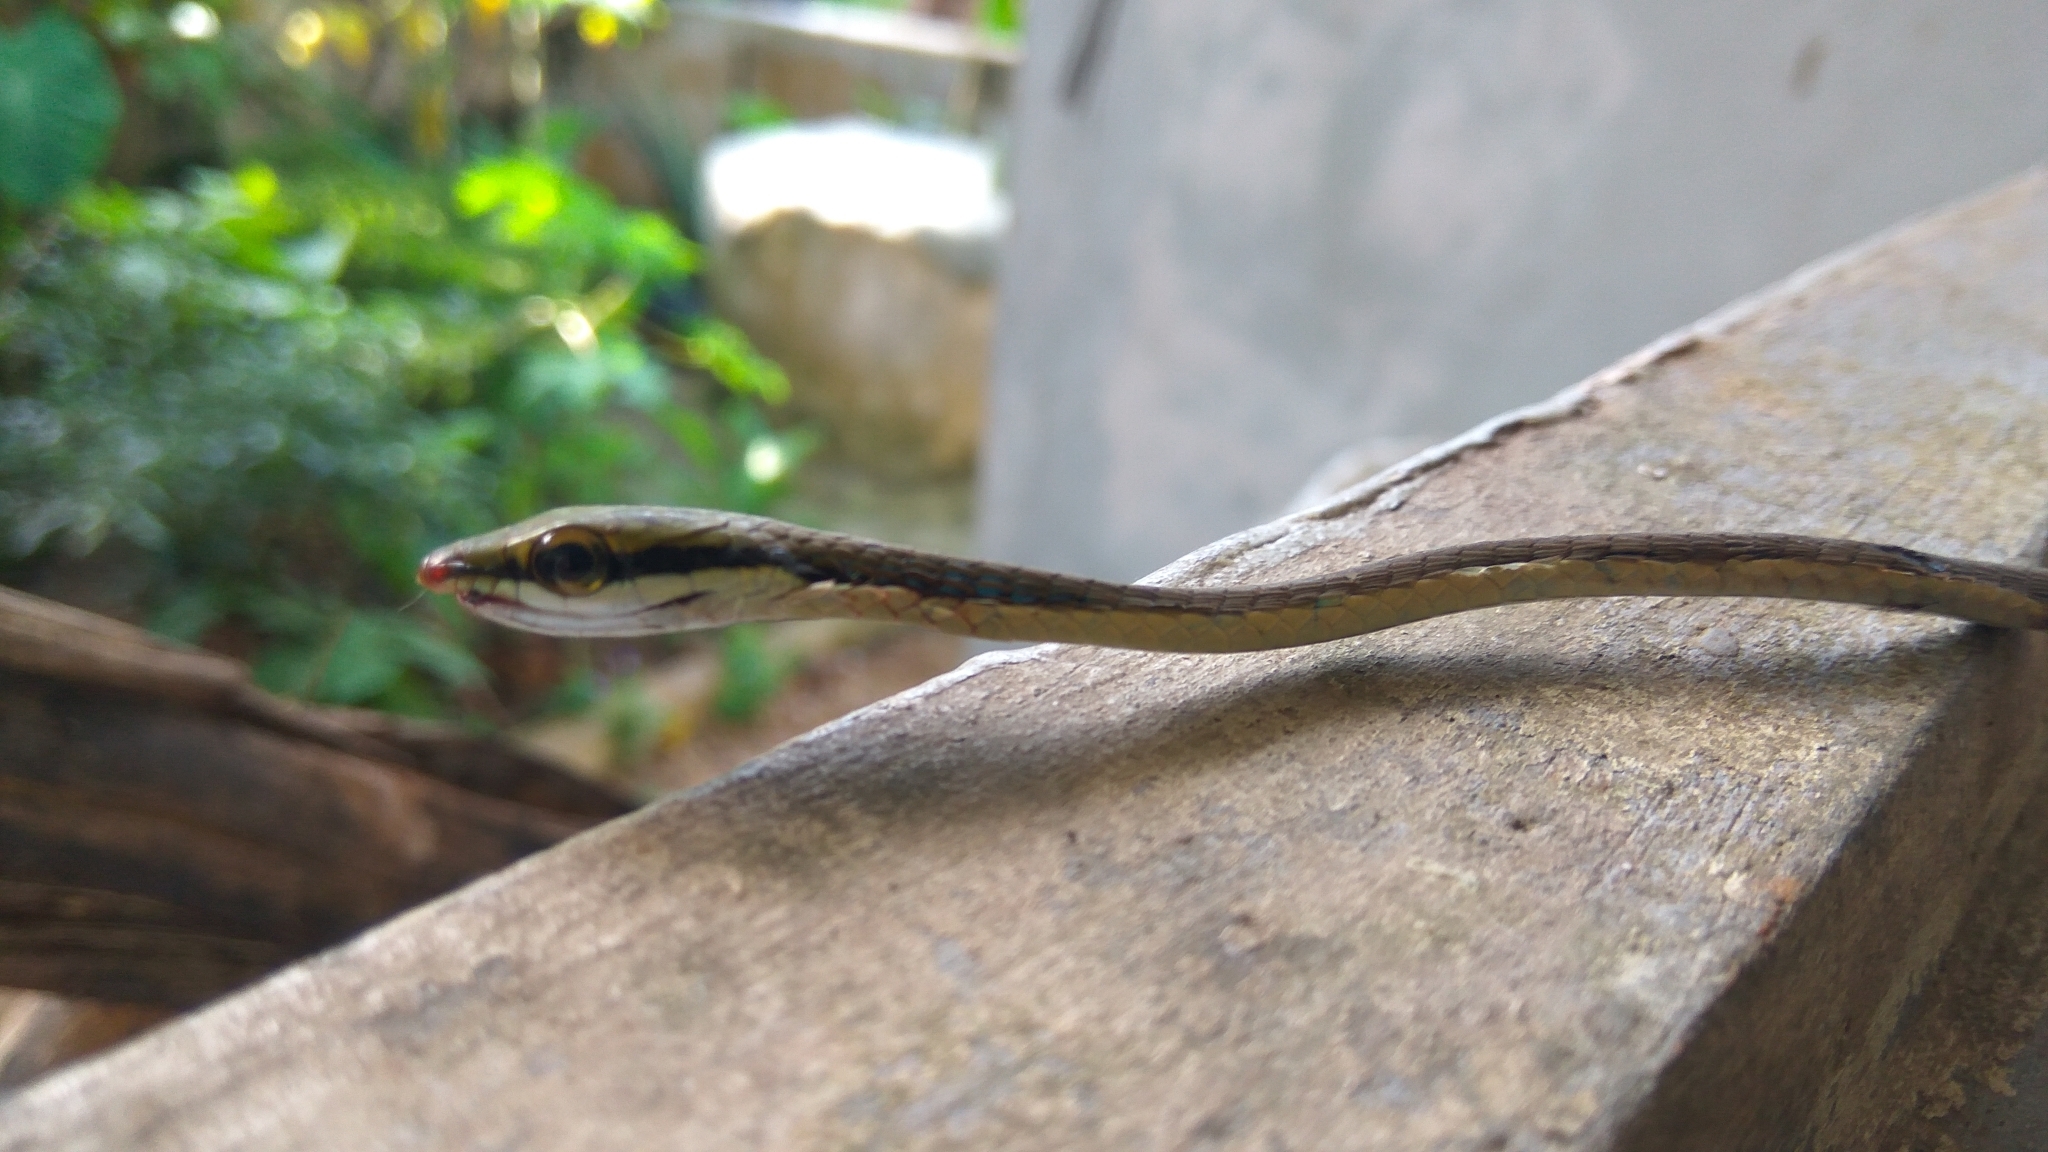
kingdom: Animalia
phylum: Chordata
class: Squamata
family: Colubridae
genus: Dendrelaphis
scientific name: Dendrelaphis girii
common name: Giri's bronzeback tree snake
